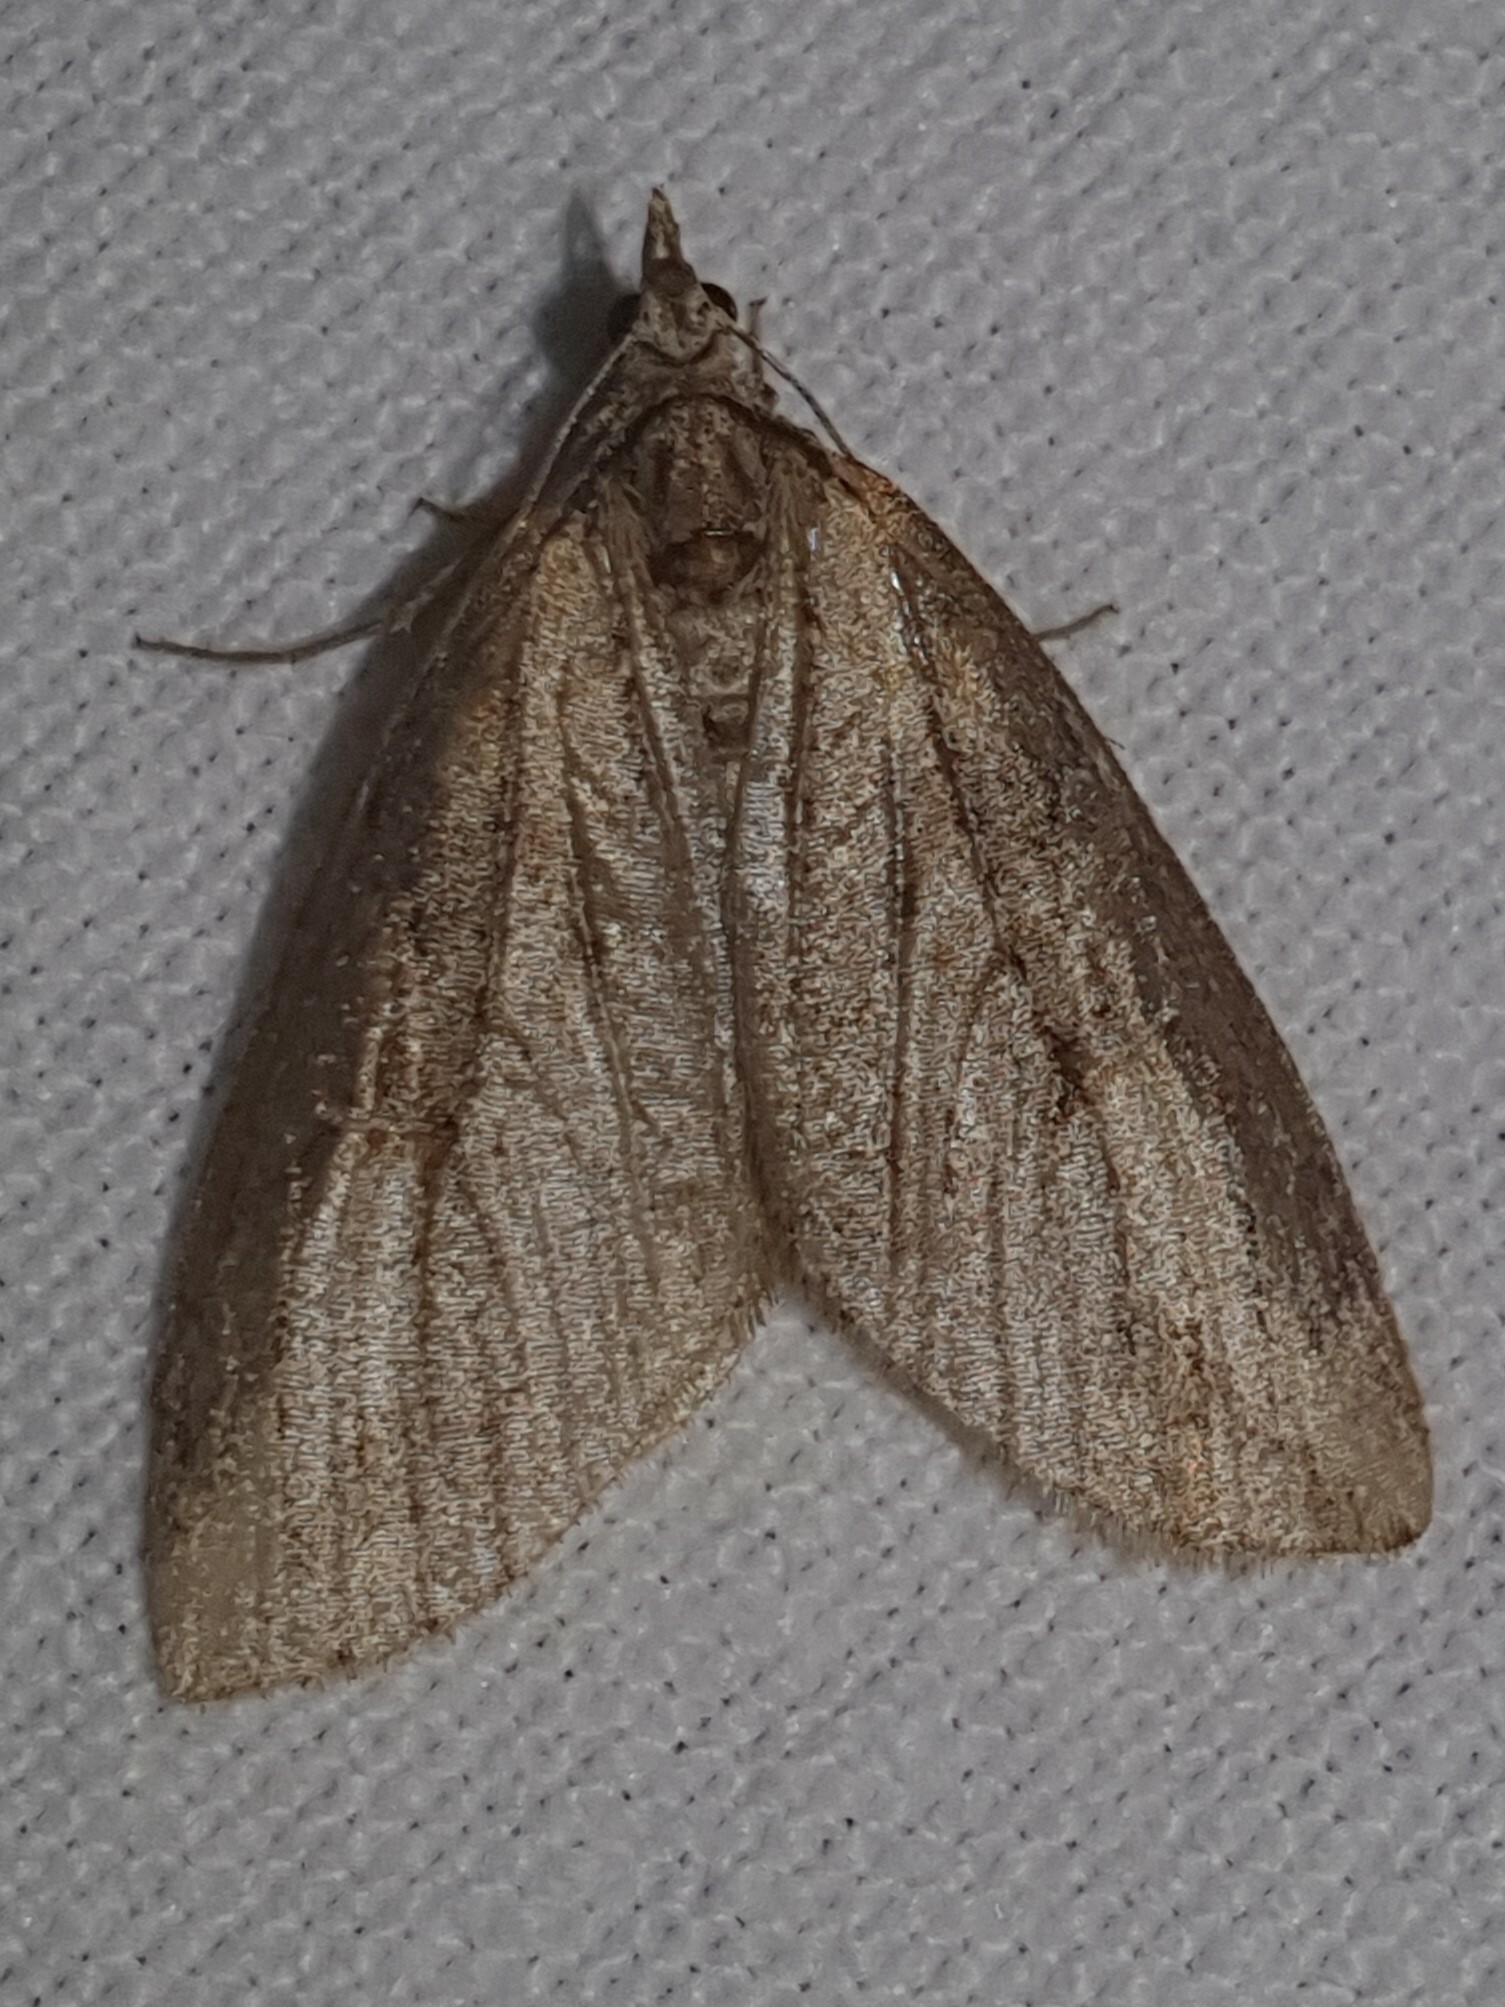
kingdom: Animalia
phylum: Arthropoda
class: Insecta
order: Lepidoptera
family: Geometridae
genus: Chesias
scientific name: Chesias isabella
